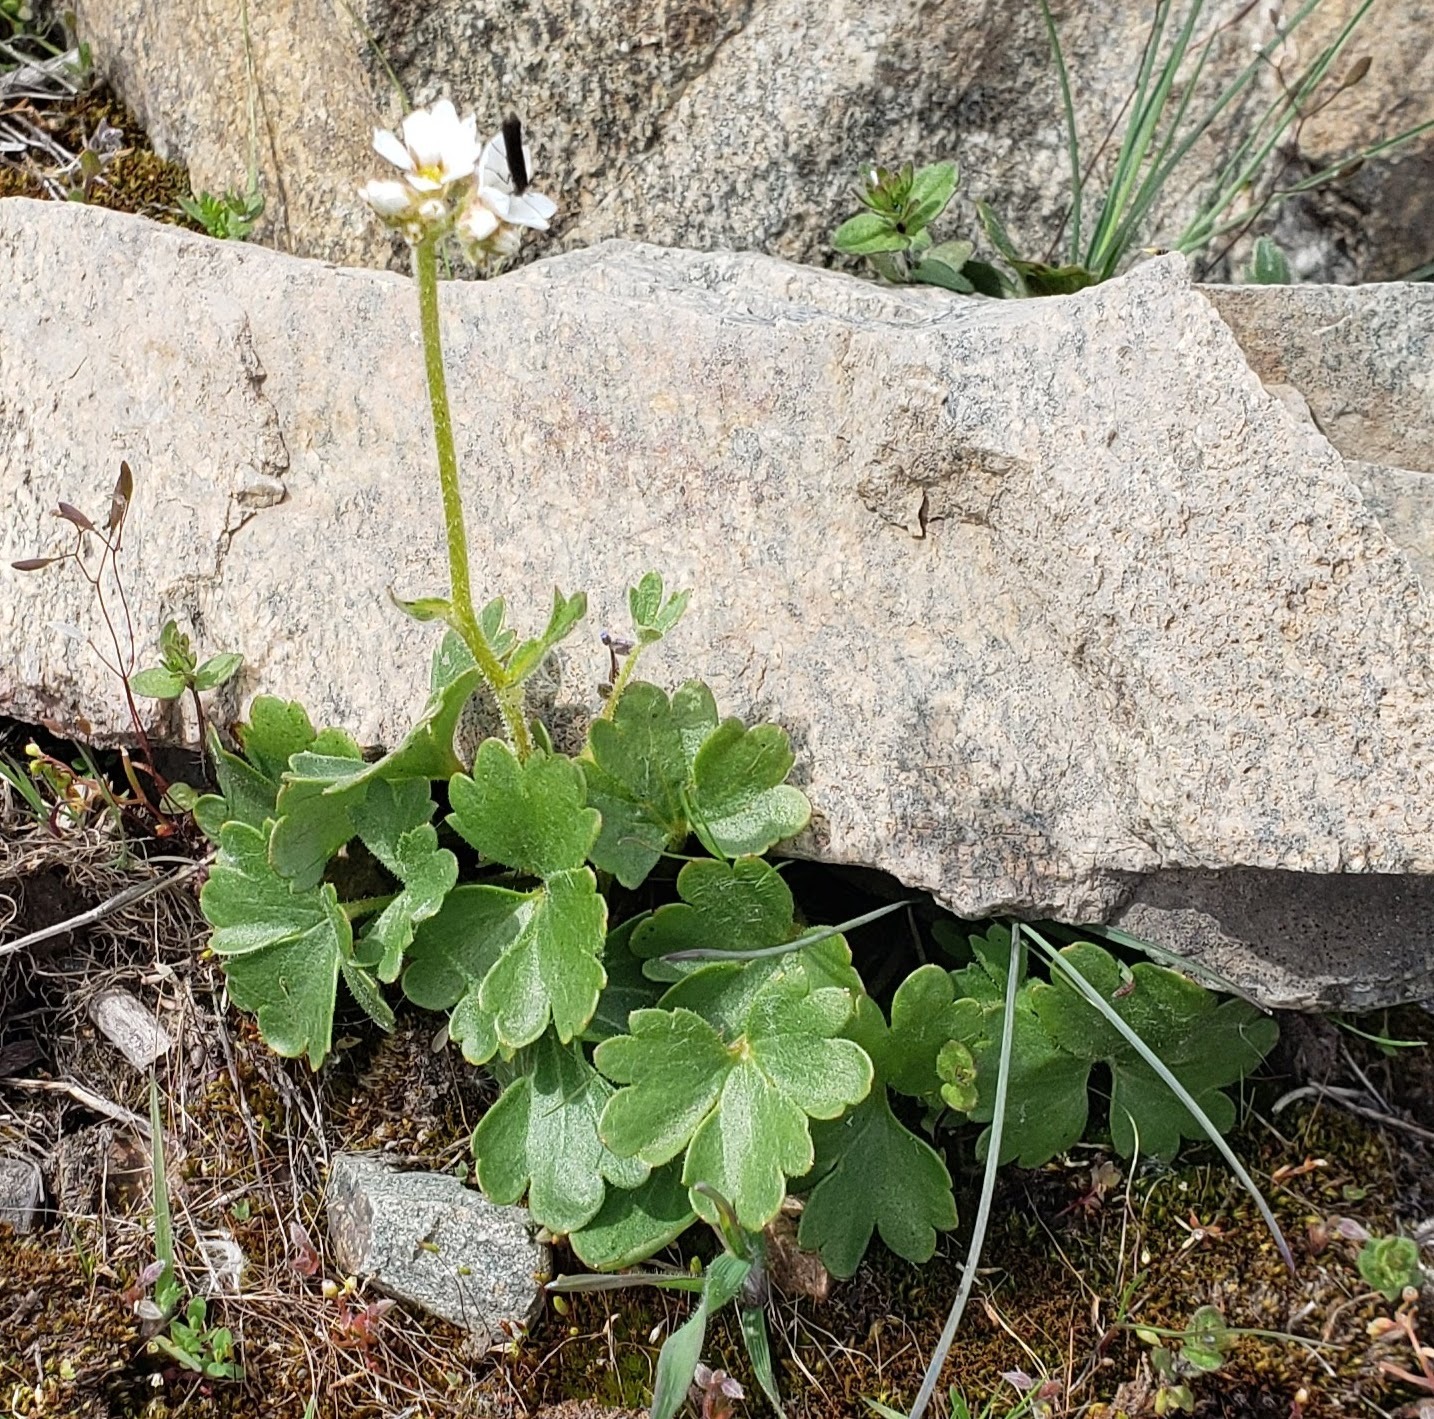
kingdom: Plantae
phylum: Tracheophyta
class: Magnoliopsida
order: Saxifragales
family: Saxifragaceae
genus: Hemieva
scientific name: Hemieva ranunculifolia
